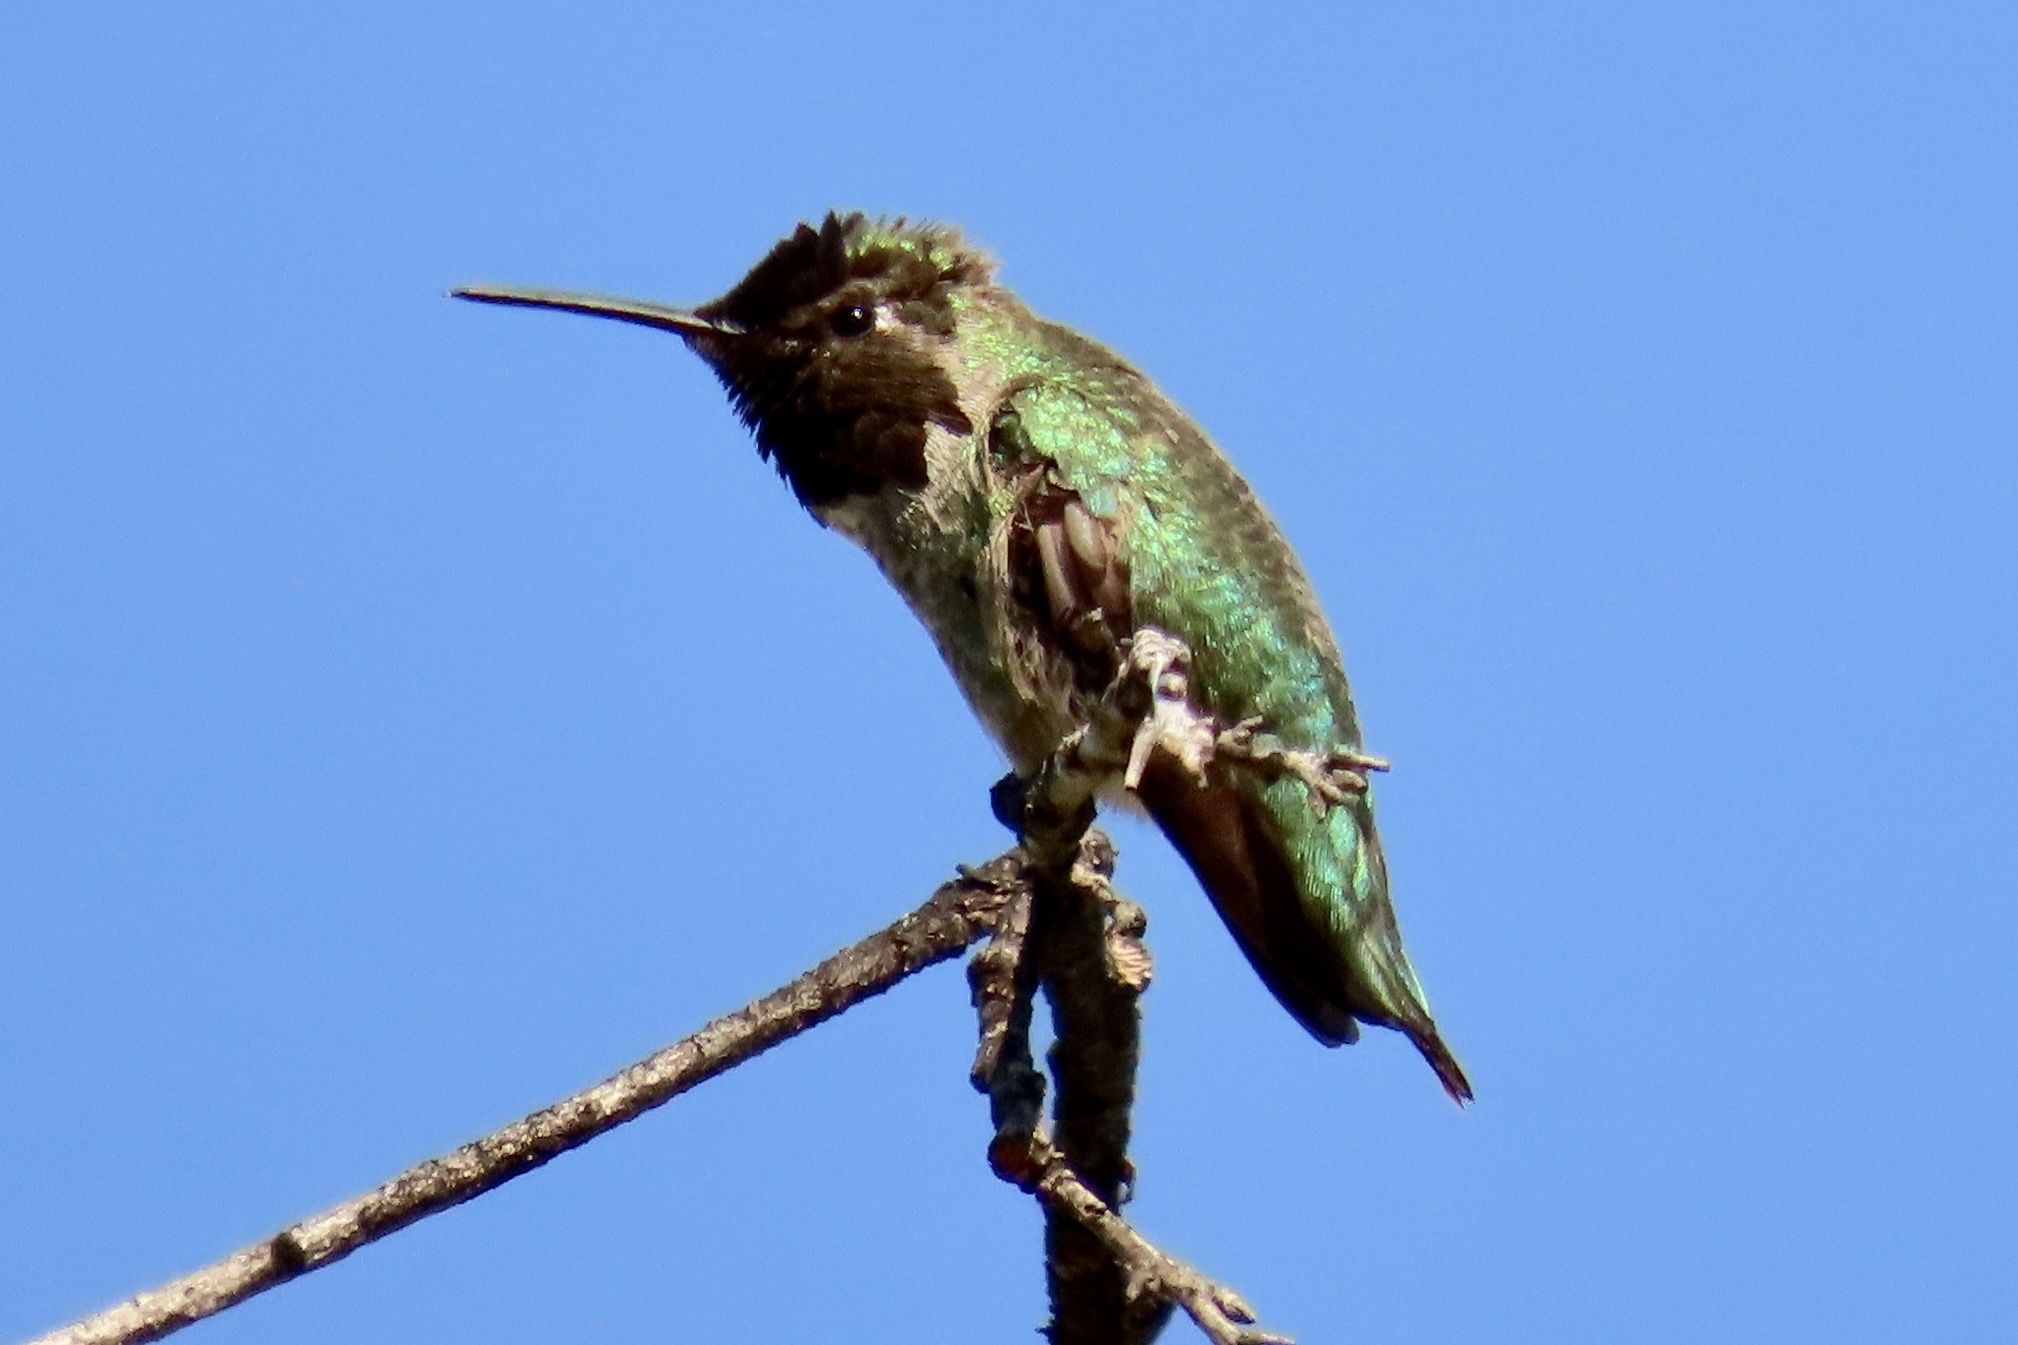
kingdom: Animalia
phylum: Chordata
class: Aves
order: Apodiformes
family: Trochilidae
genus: Calypte
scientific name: Calypte anna
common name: Anna's hummingbird
